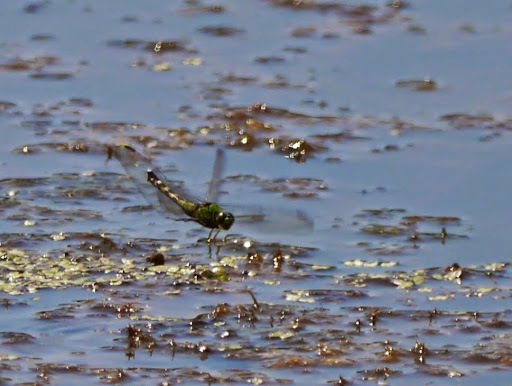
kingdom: Animalia
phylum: Arthropoda
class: Insecta
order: Odonata
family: Libellulidae
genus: Erythemis
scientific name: Erythemis simplicicollis
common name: Eastern pondhawk
